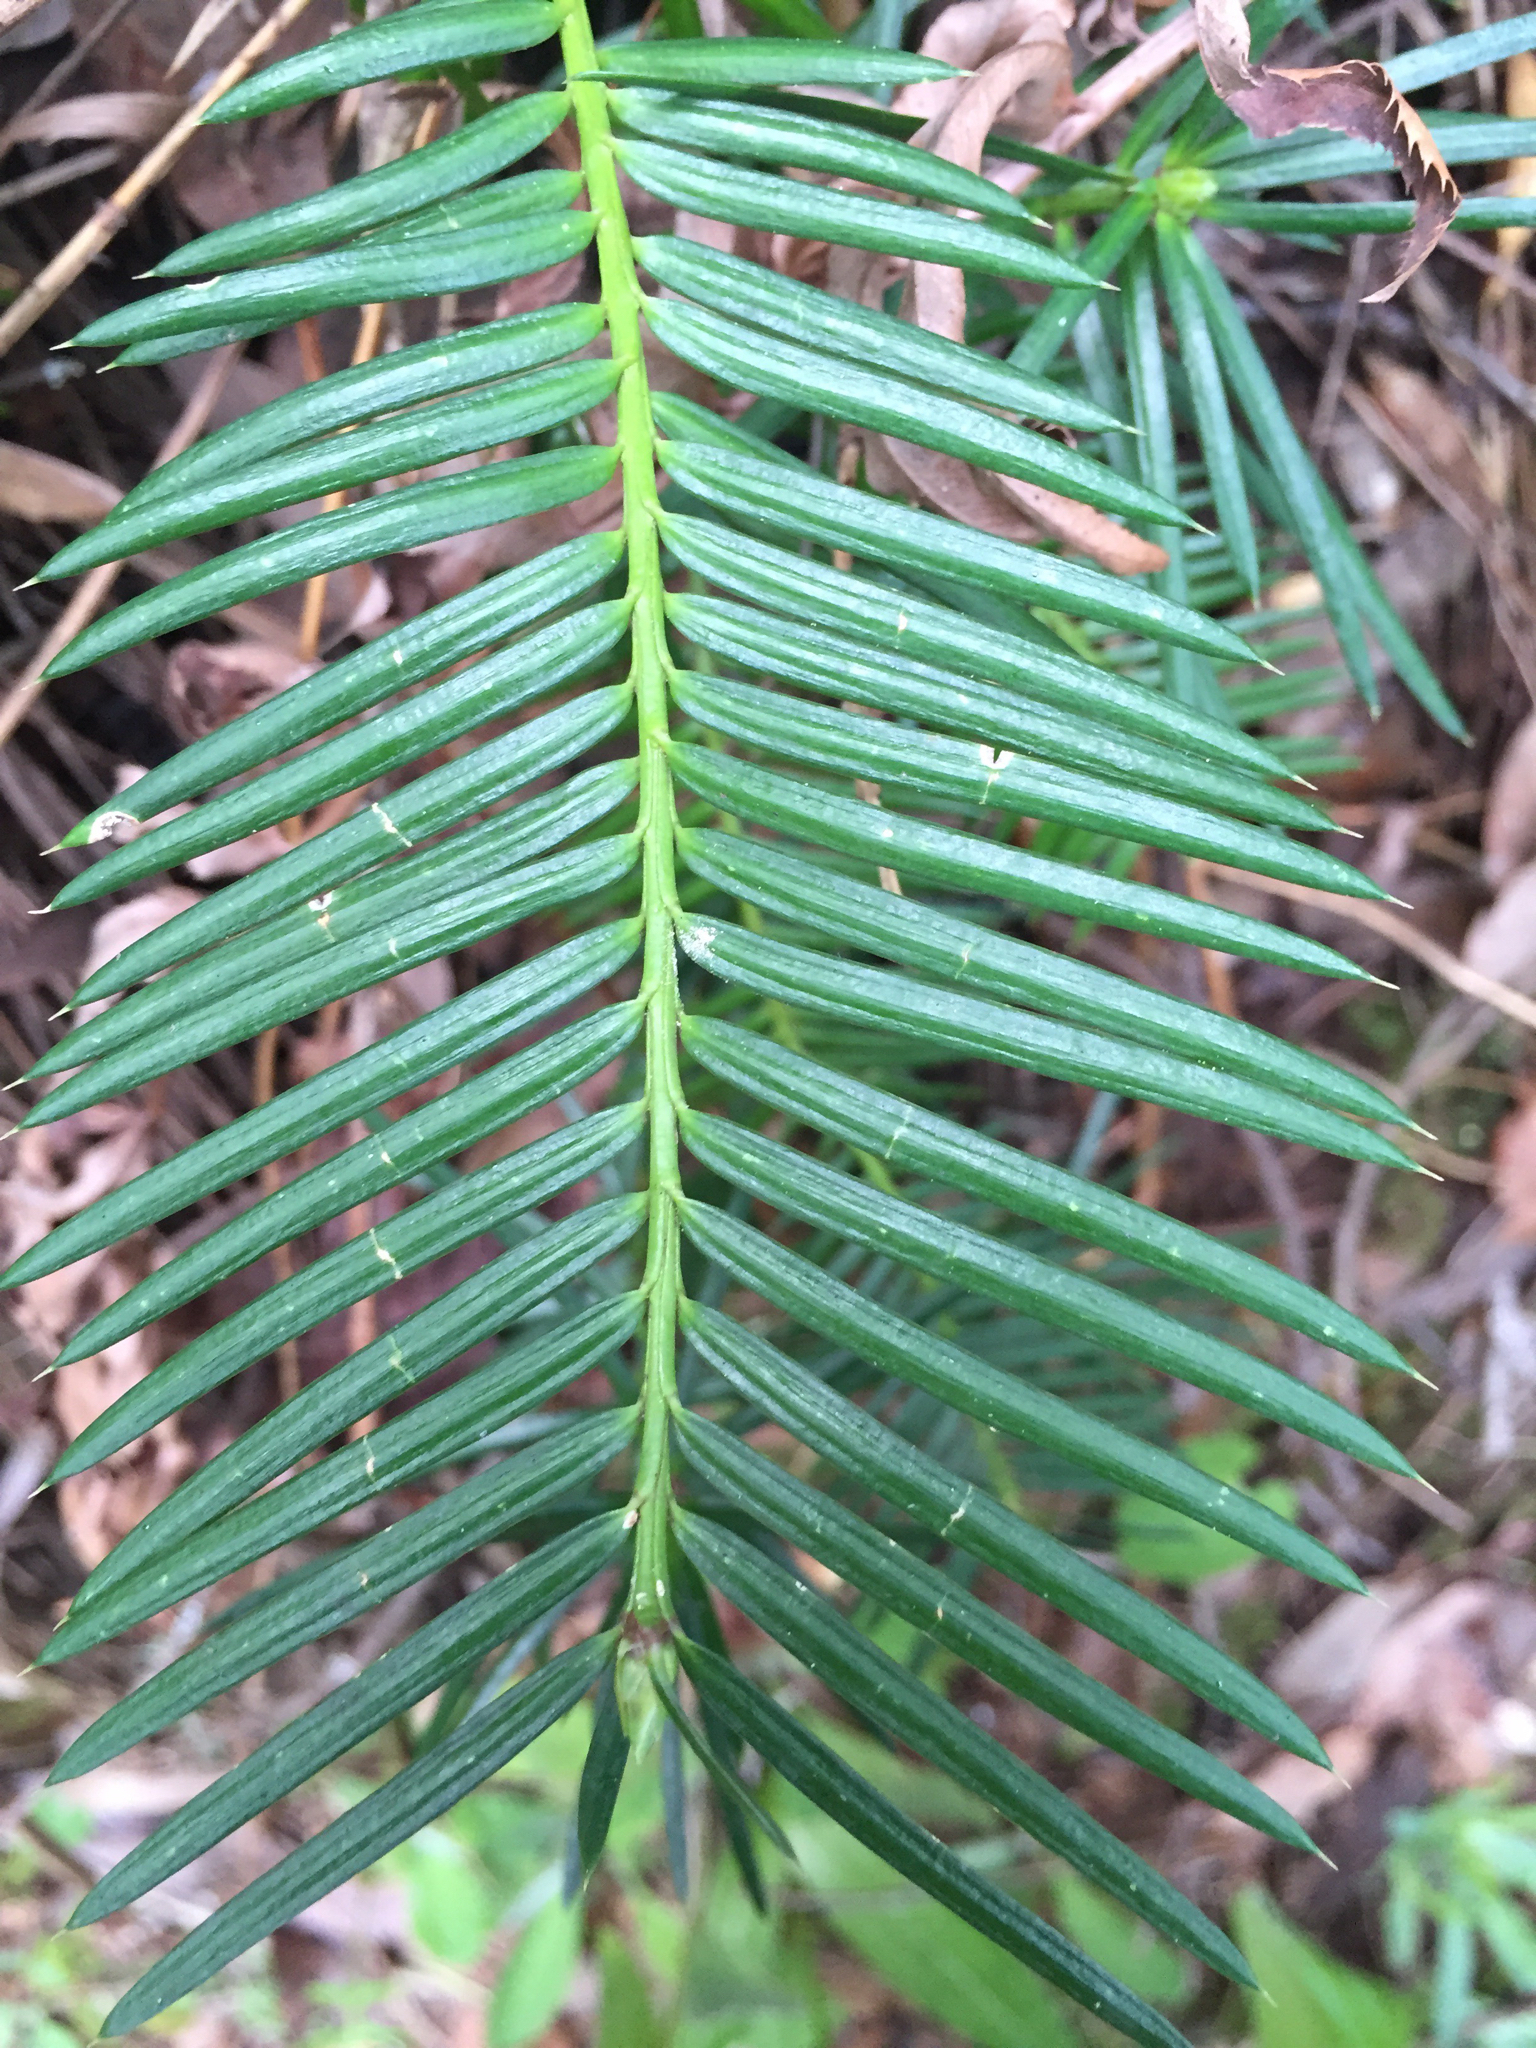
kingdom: Plantae
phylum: Tracheophyta
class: Pinopsida
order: Pinales
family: Taxaceae
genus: Torreya
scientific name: Torreya californica
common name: California torreya
